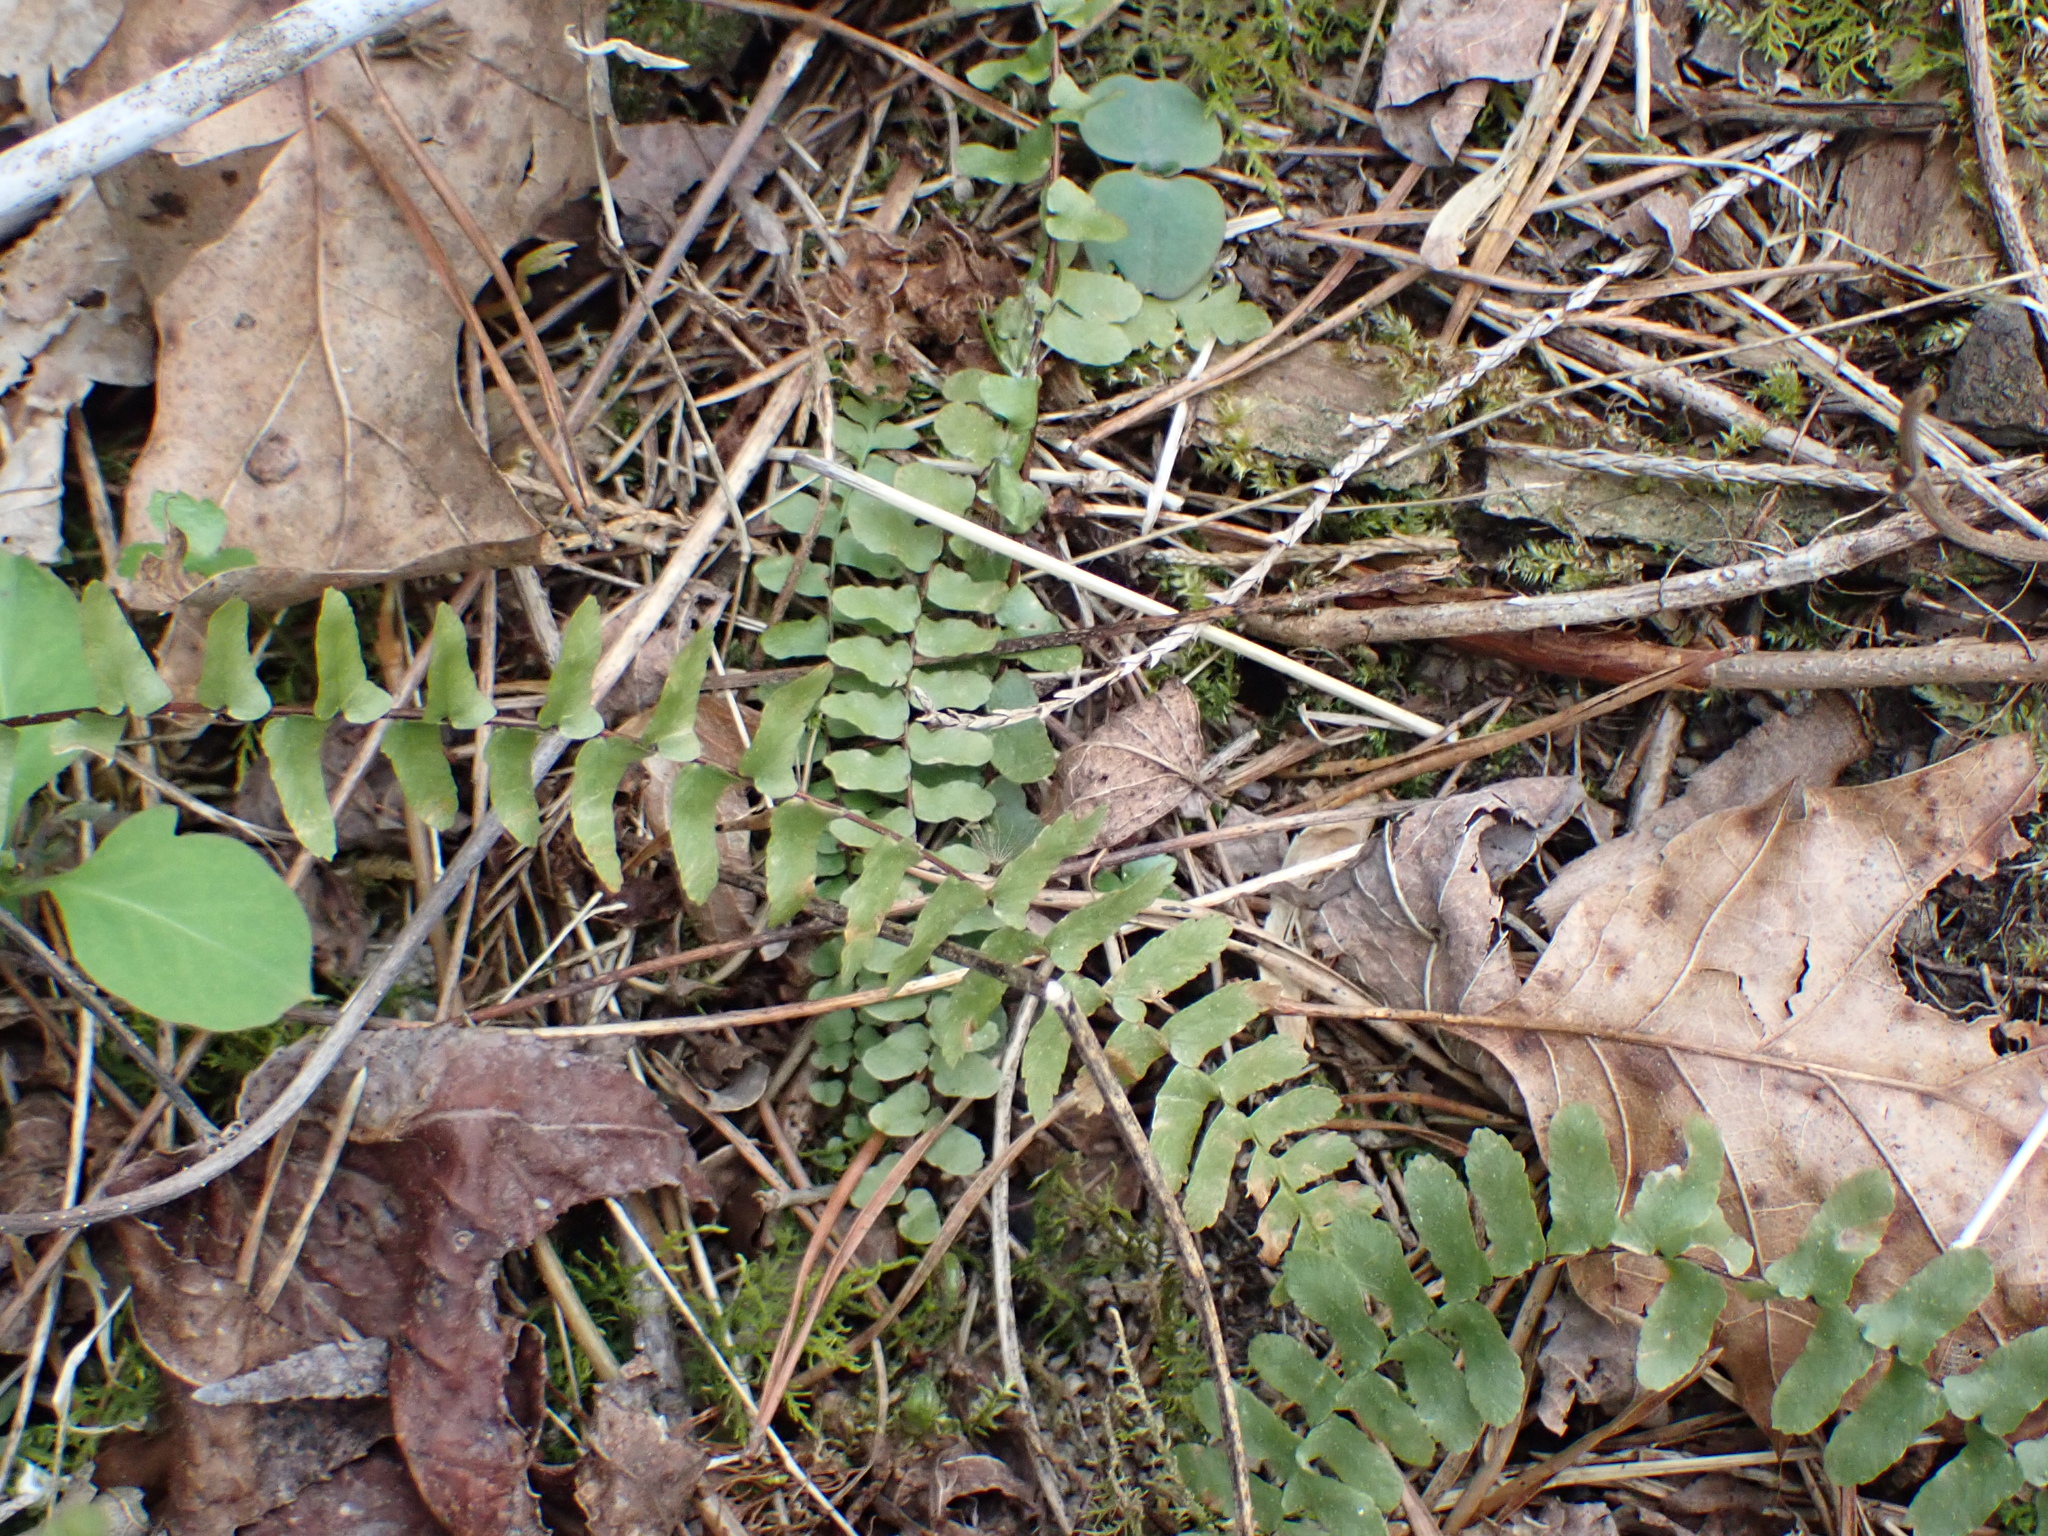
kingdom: Plantae
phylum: Tracheophyta
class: Polypodiopsida
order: Polypodiales
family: Aspleniaceae
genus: Asplenium
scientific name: Asplenium platyneuron
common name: Ebony spleenwort
